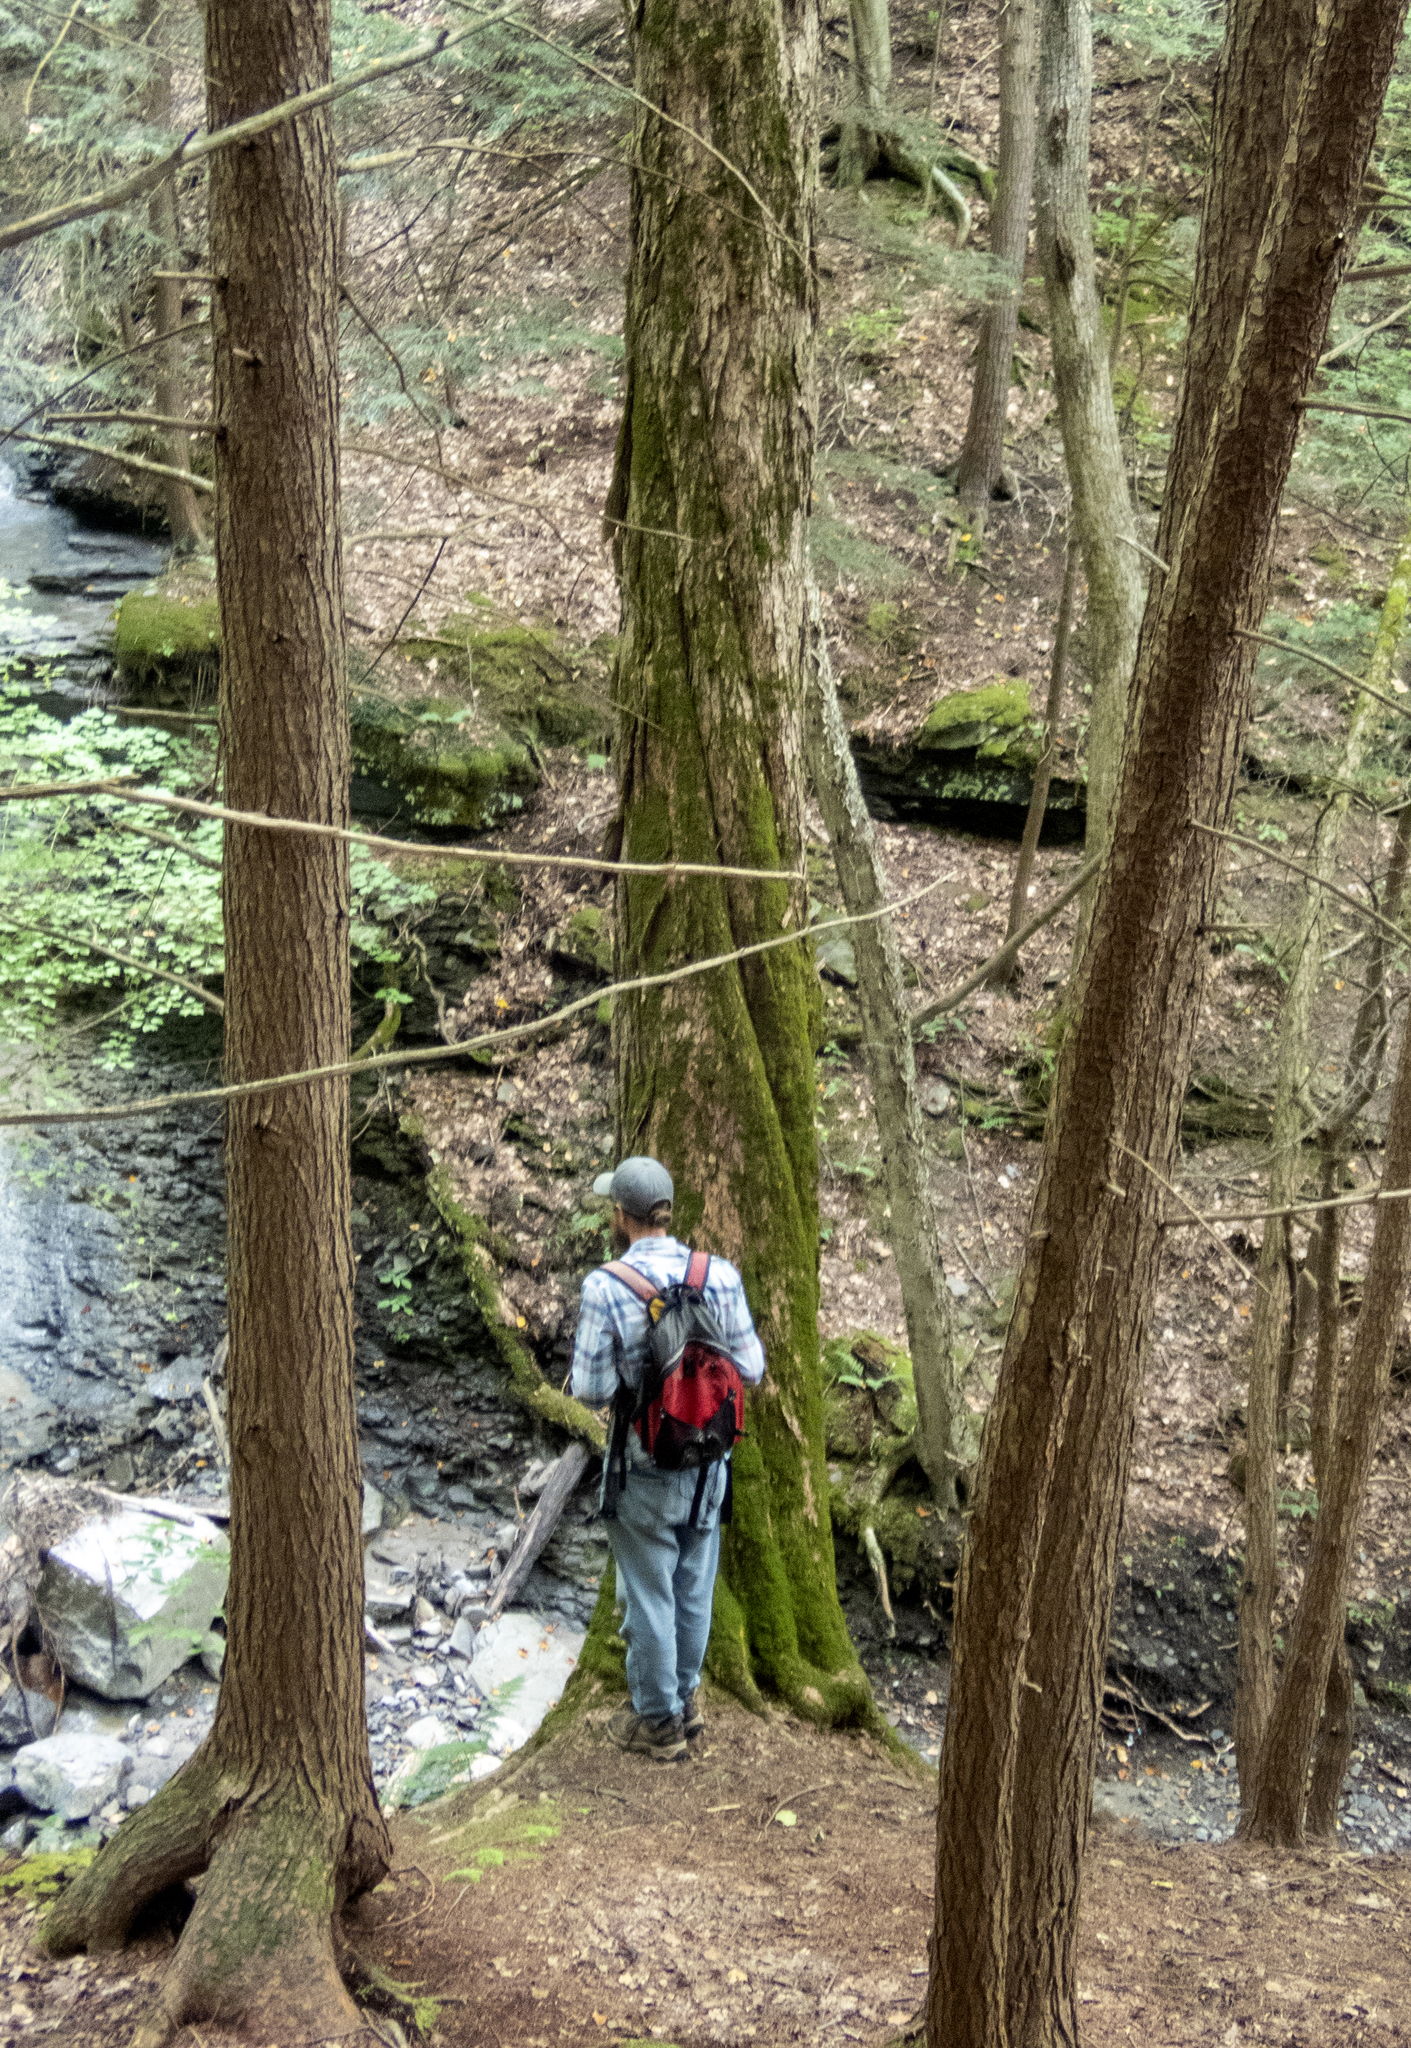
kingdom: Plantae
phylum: Tracheophyta
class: Pinopsida
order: Pinales
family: Pinaceae
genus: Tsuga
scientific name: Tsuga canadensis
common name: Eastern hemlock
